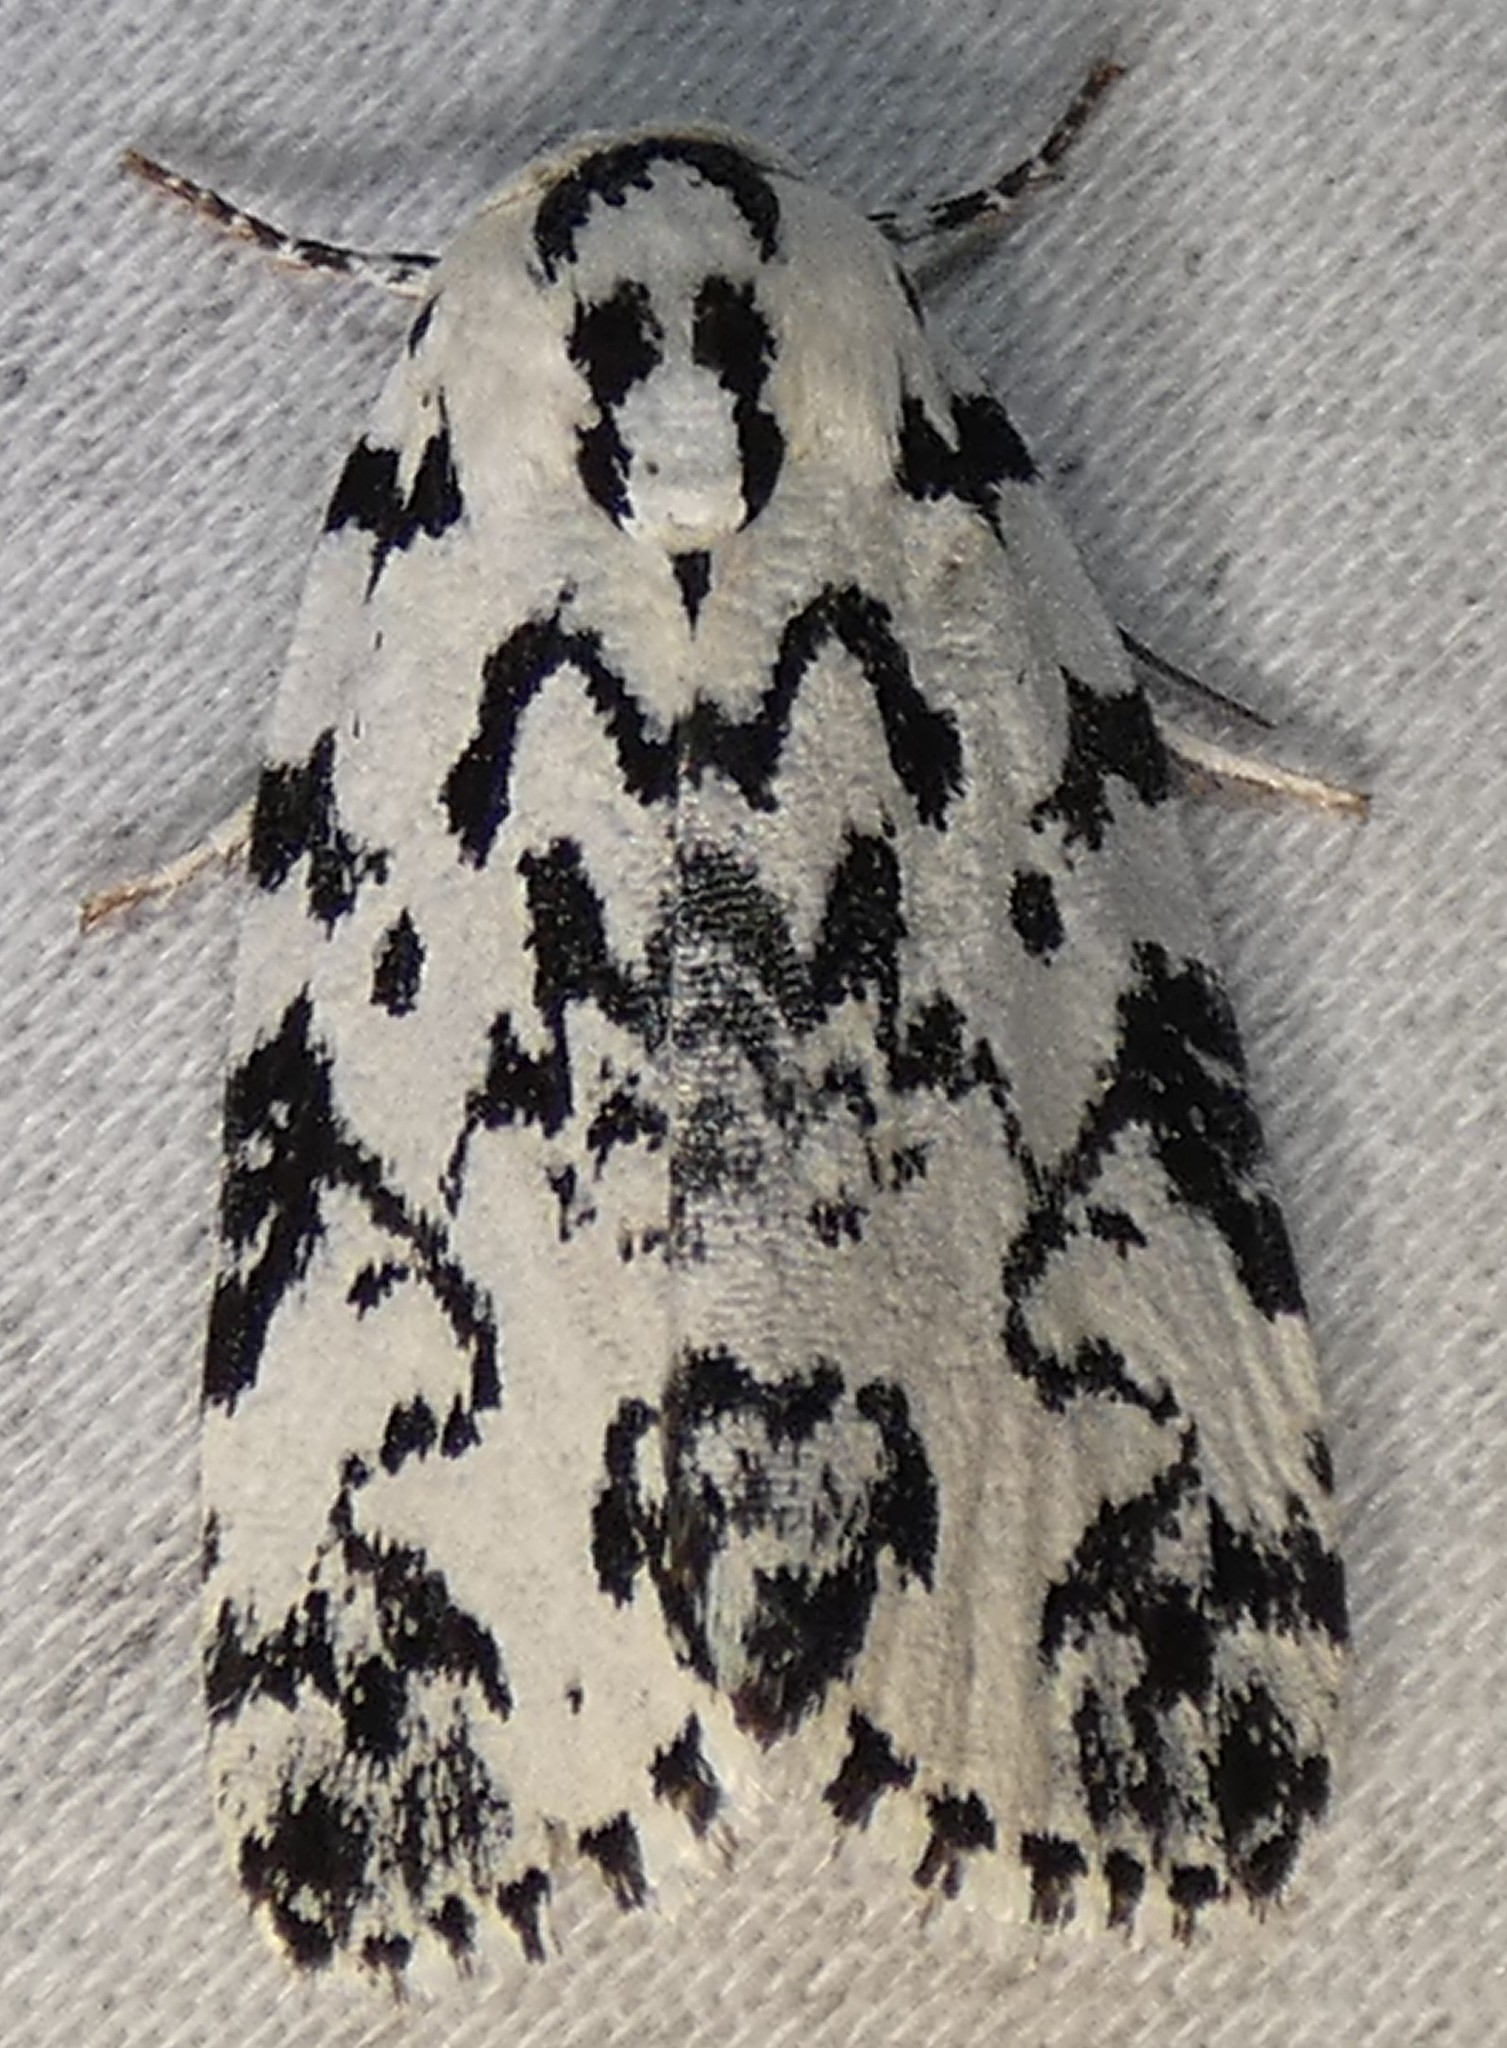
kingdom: Animalia
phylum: Arthropoda
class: Insecta
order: Lepidoptera
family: Noctuidae
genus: Polygrammate
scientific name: Polygrammate hebraeicum
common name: Hebrew moth
